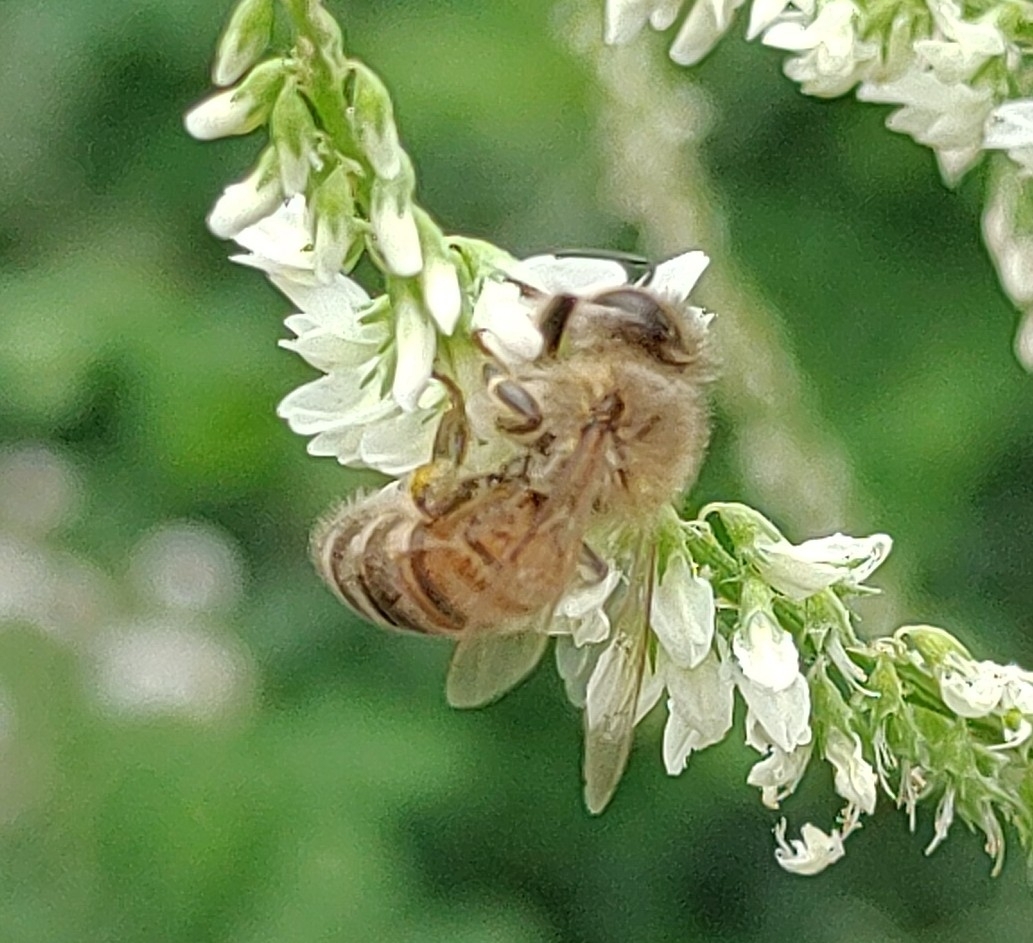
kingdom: Animalia
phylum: Arthropoda
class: Insecta
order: Hymenoptera
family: Apidae
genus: Apis
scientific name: Apis mellifera
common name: Honey bee
